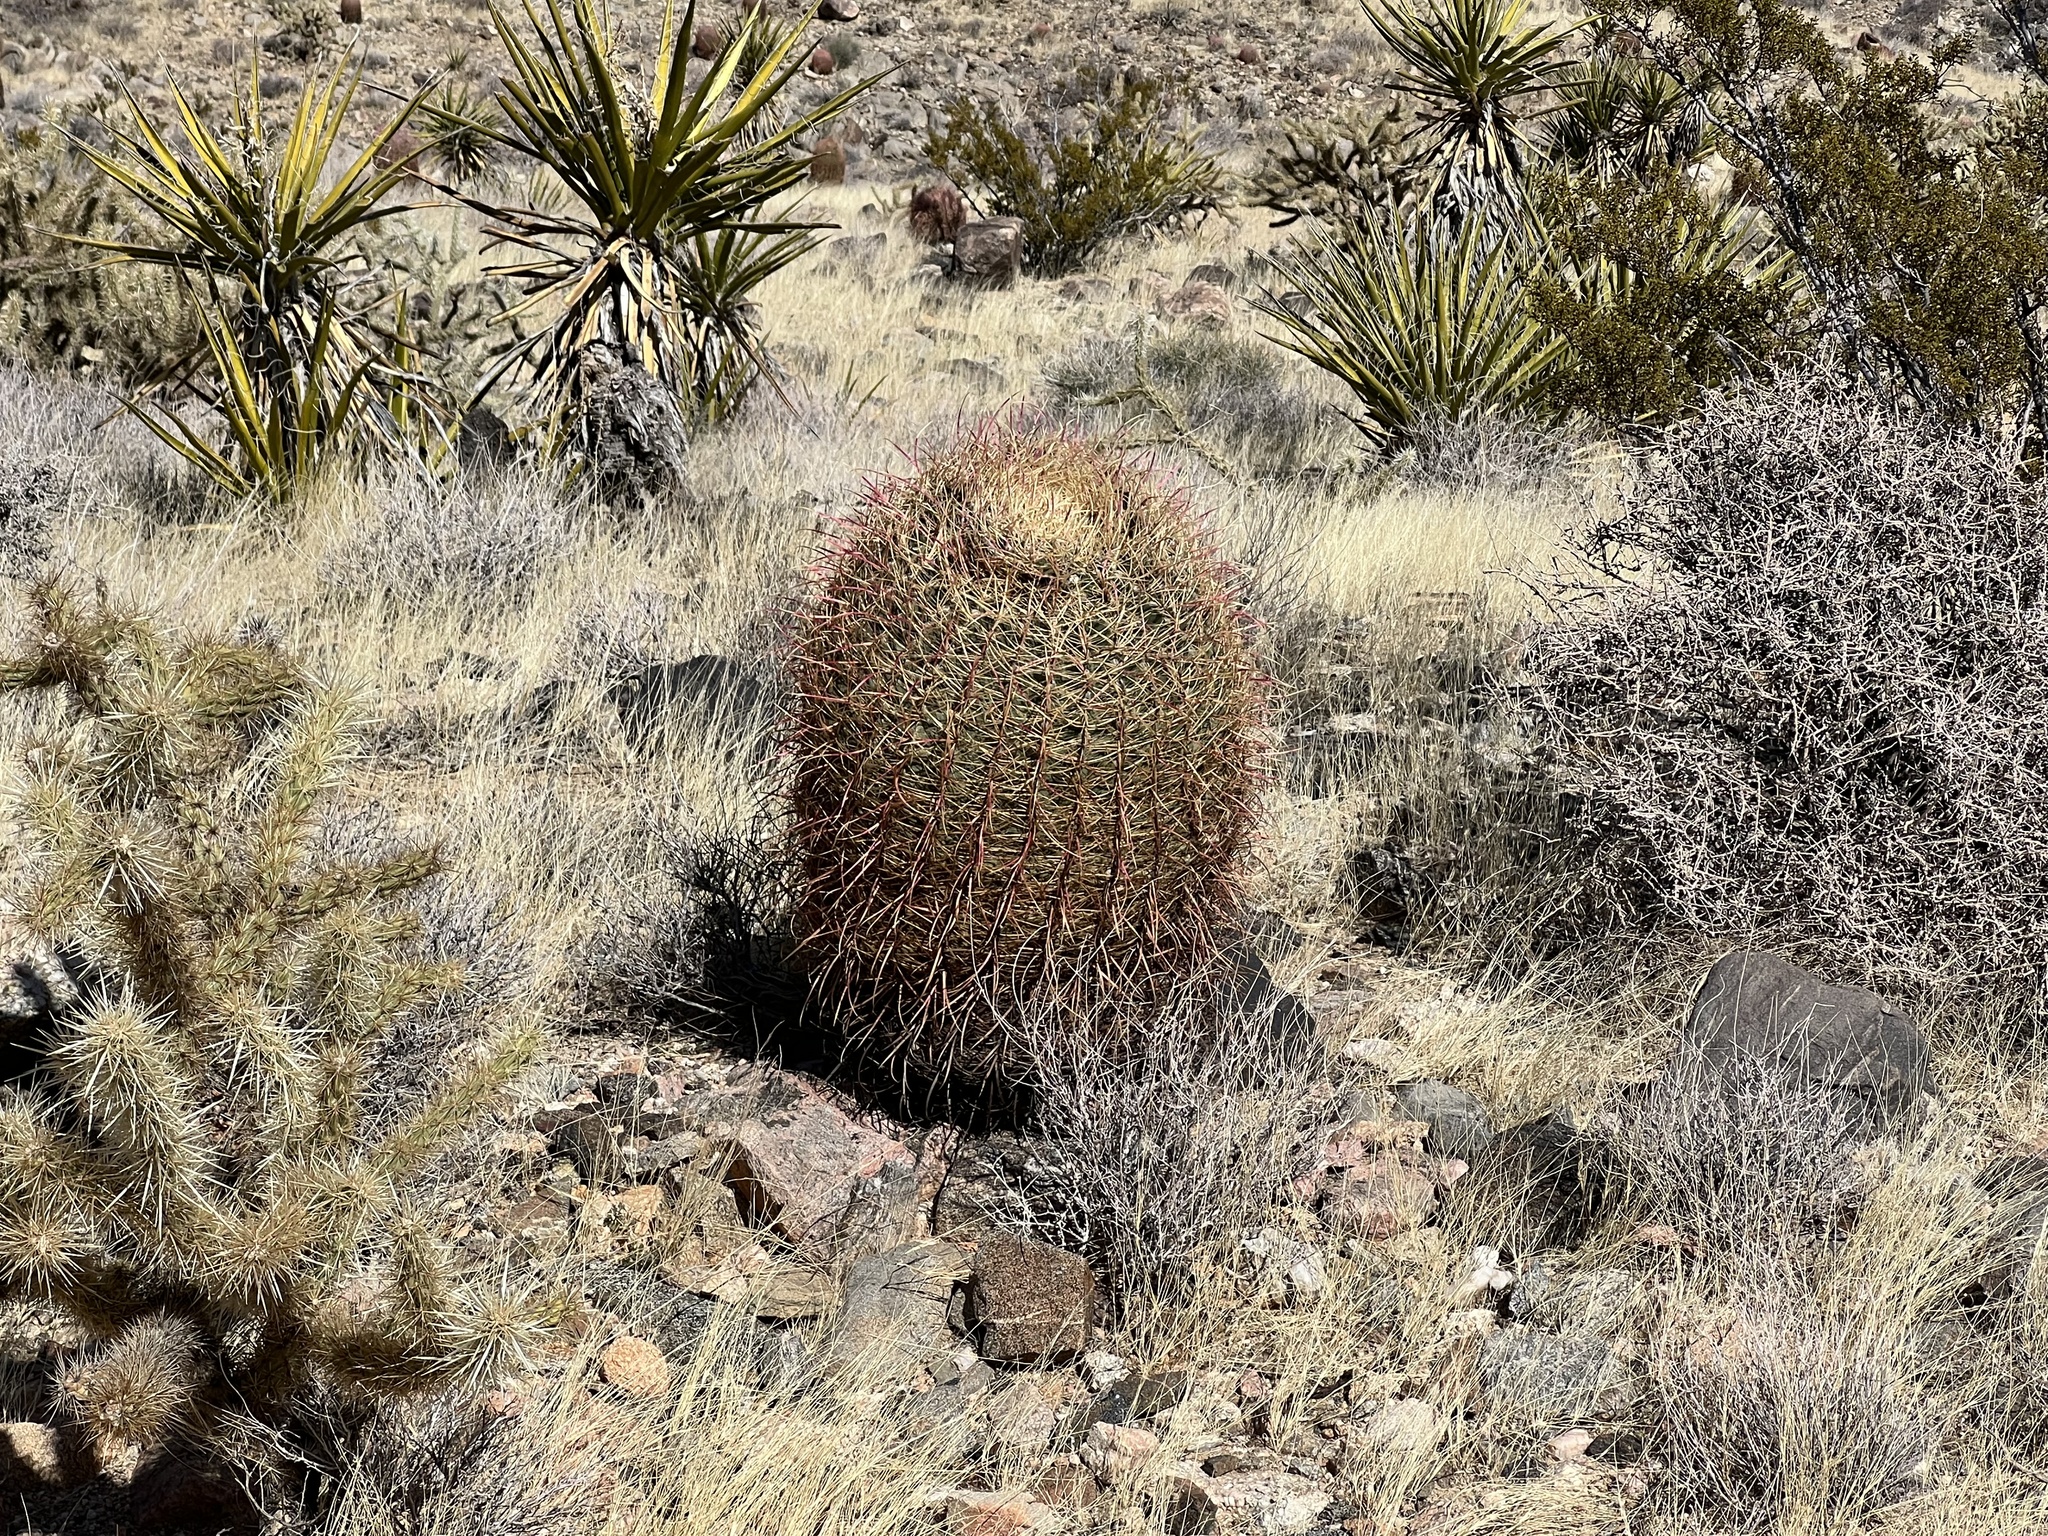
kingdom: Plantae
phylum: Tracheophyta
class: Magnoliopsida
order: Caryophyllales
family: Cactaceae
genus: Ferocactus
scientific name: Ferocactus cylindraceus
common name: California barrel cactus
